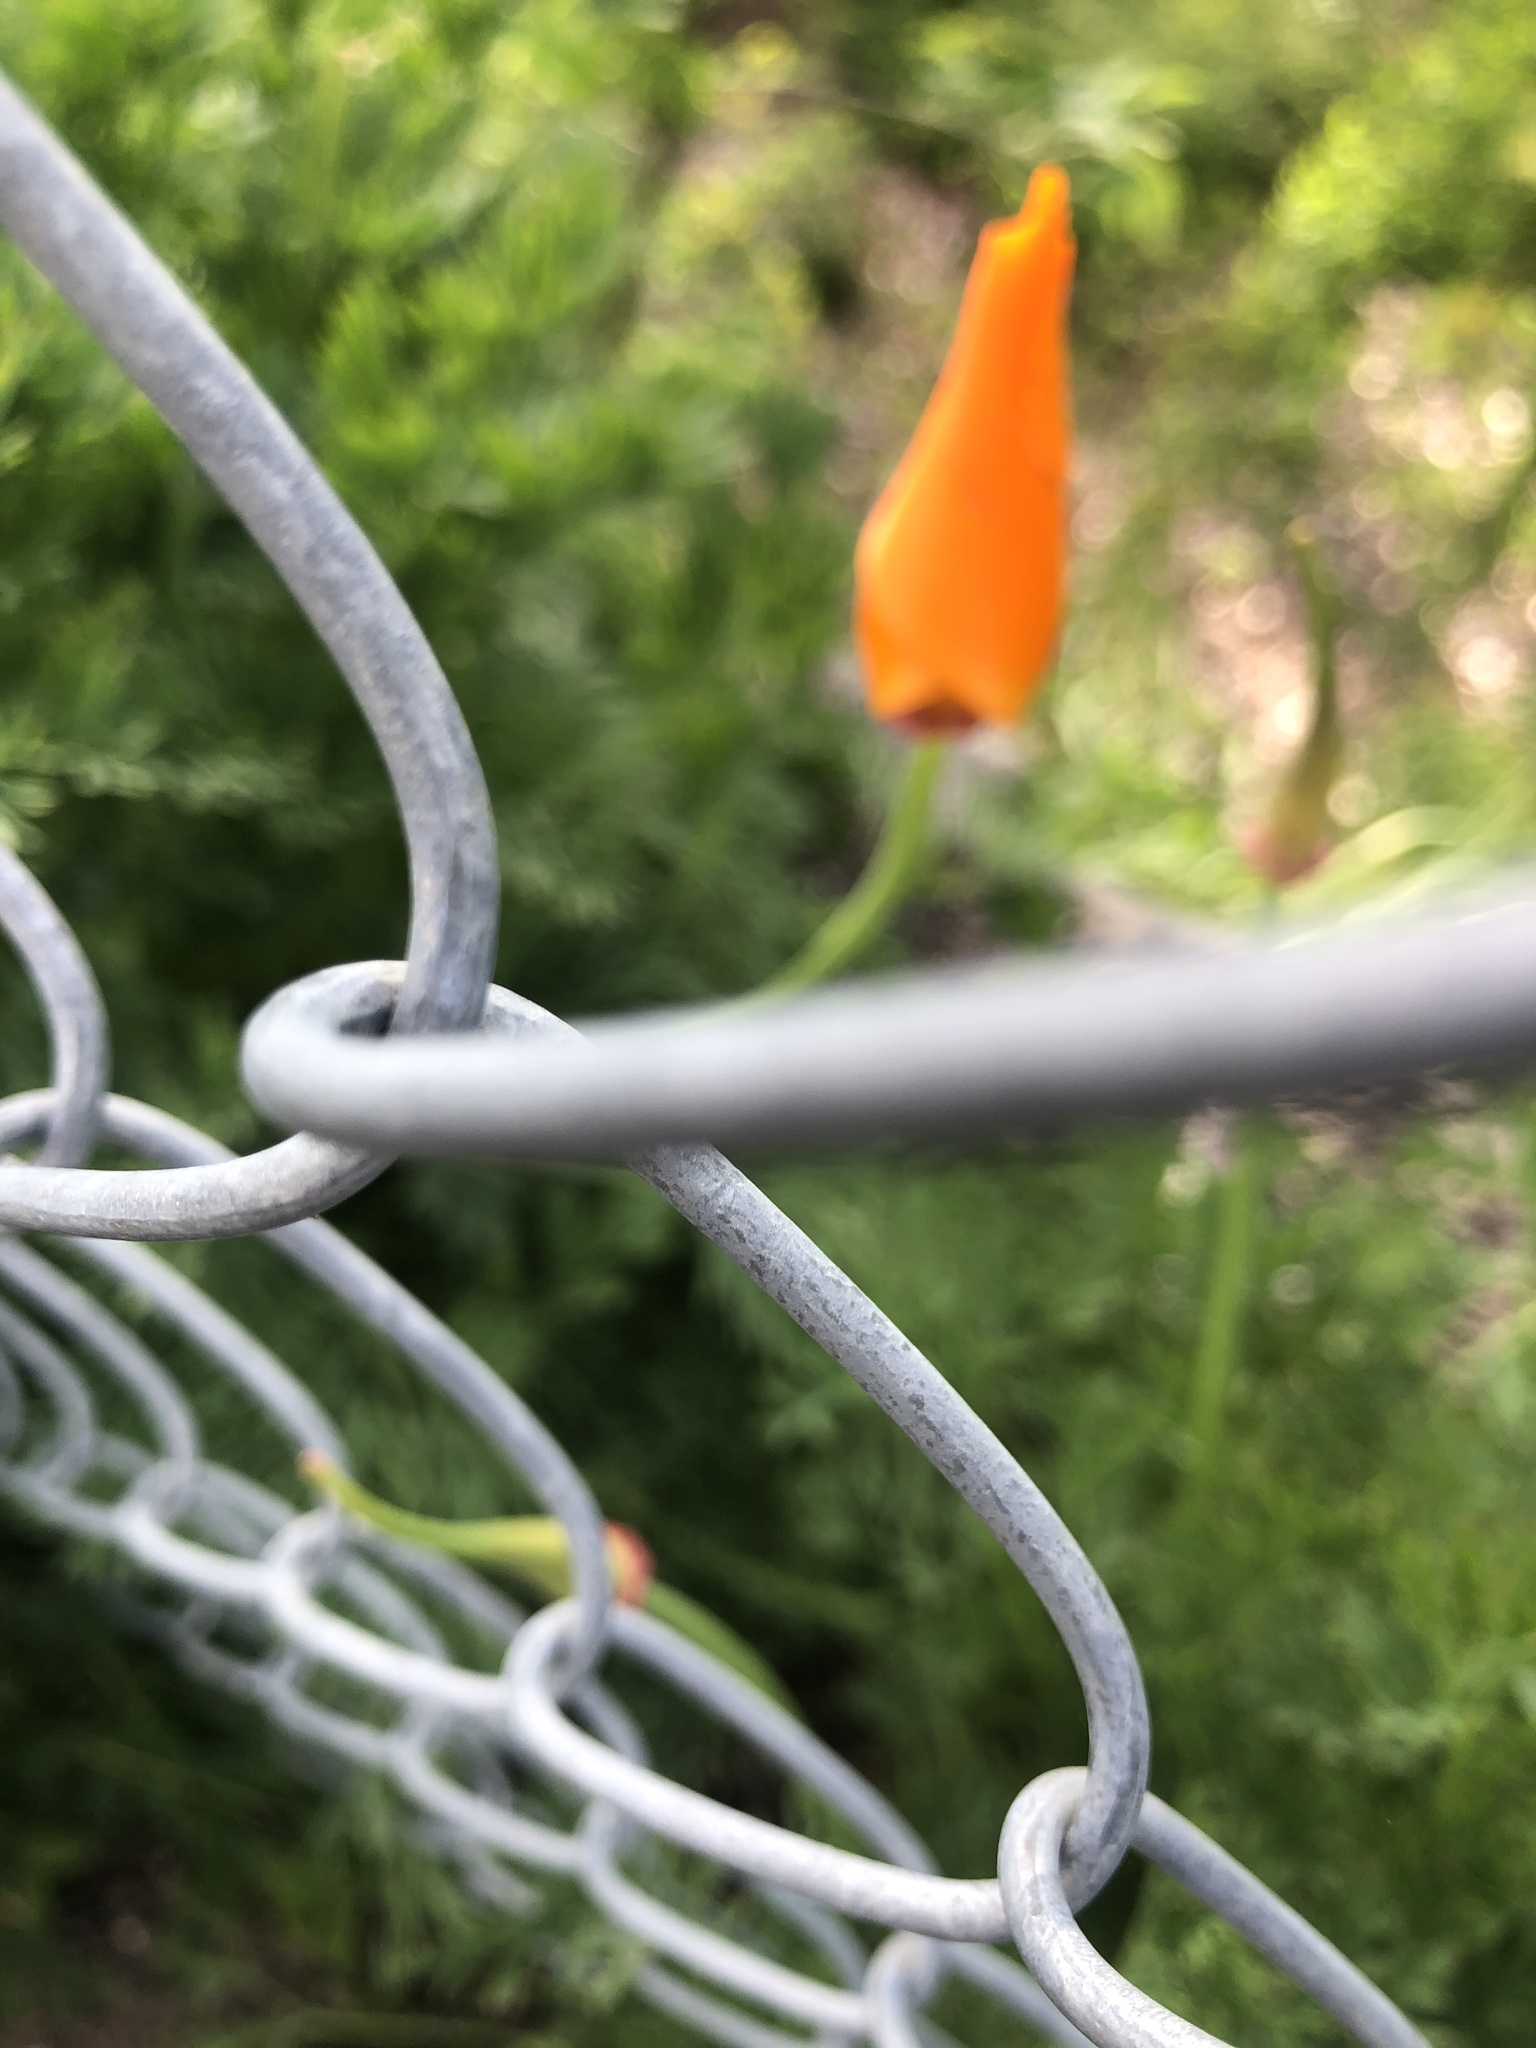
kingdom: Plantae
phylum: Tracheophyta
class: Magnoliopsida
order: Ranunculales
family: Papaveraceae
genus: Eschscholzia
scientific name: Eschscholzia californica
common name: California poppy
